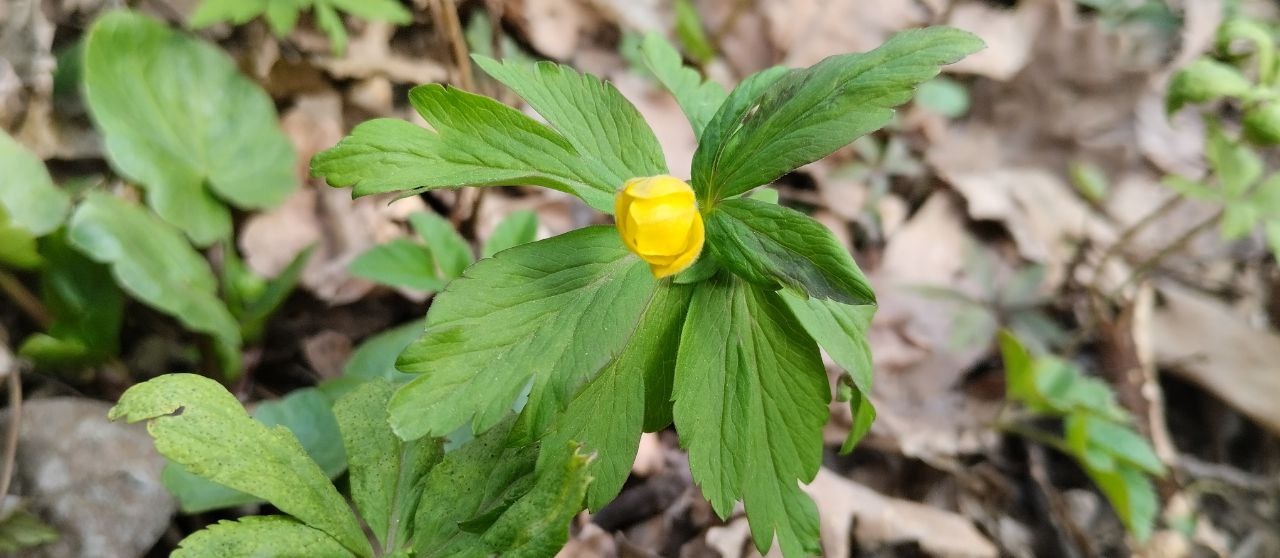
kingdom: Plantae
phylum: Tracheophyta
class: Magnoliopsida
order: Ranunculales
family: Ranunculaceae
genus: Anemone
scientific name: Anemone ranunculoides
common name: Yellow anemone
